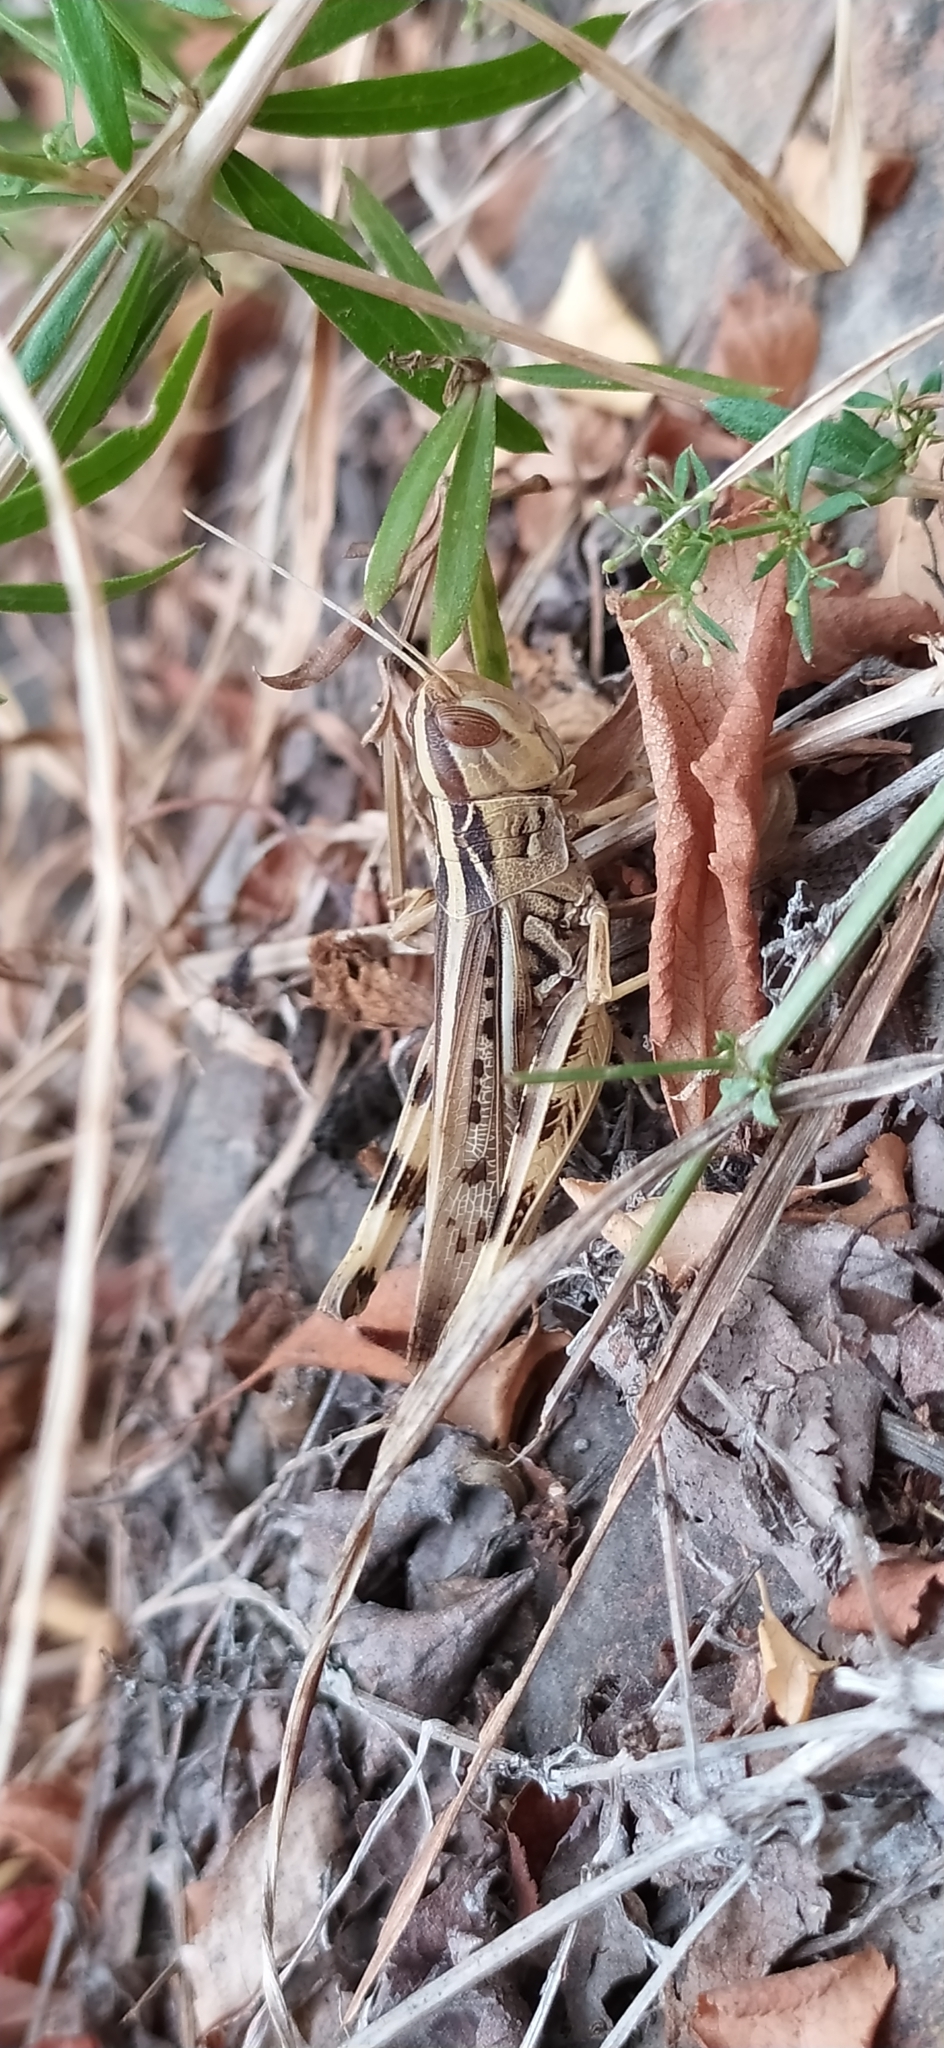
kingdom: Animalia
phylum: Arthropoda
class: Insecta
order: Orthoptera
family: Acrididae
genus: Ramburiella
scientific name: Ramburiella turcomana
